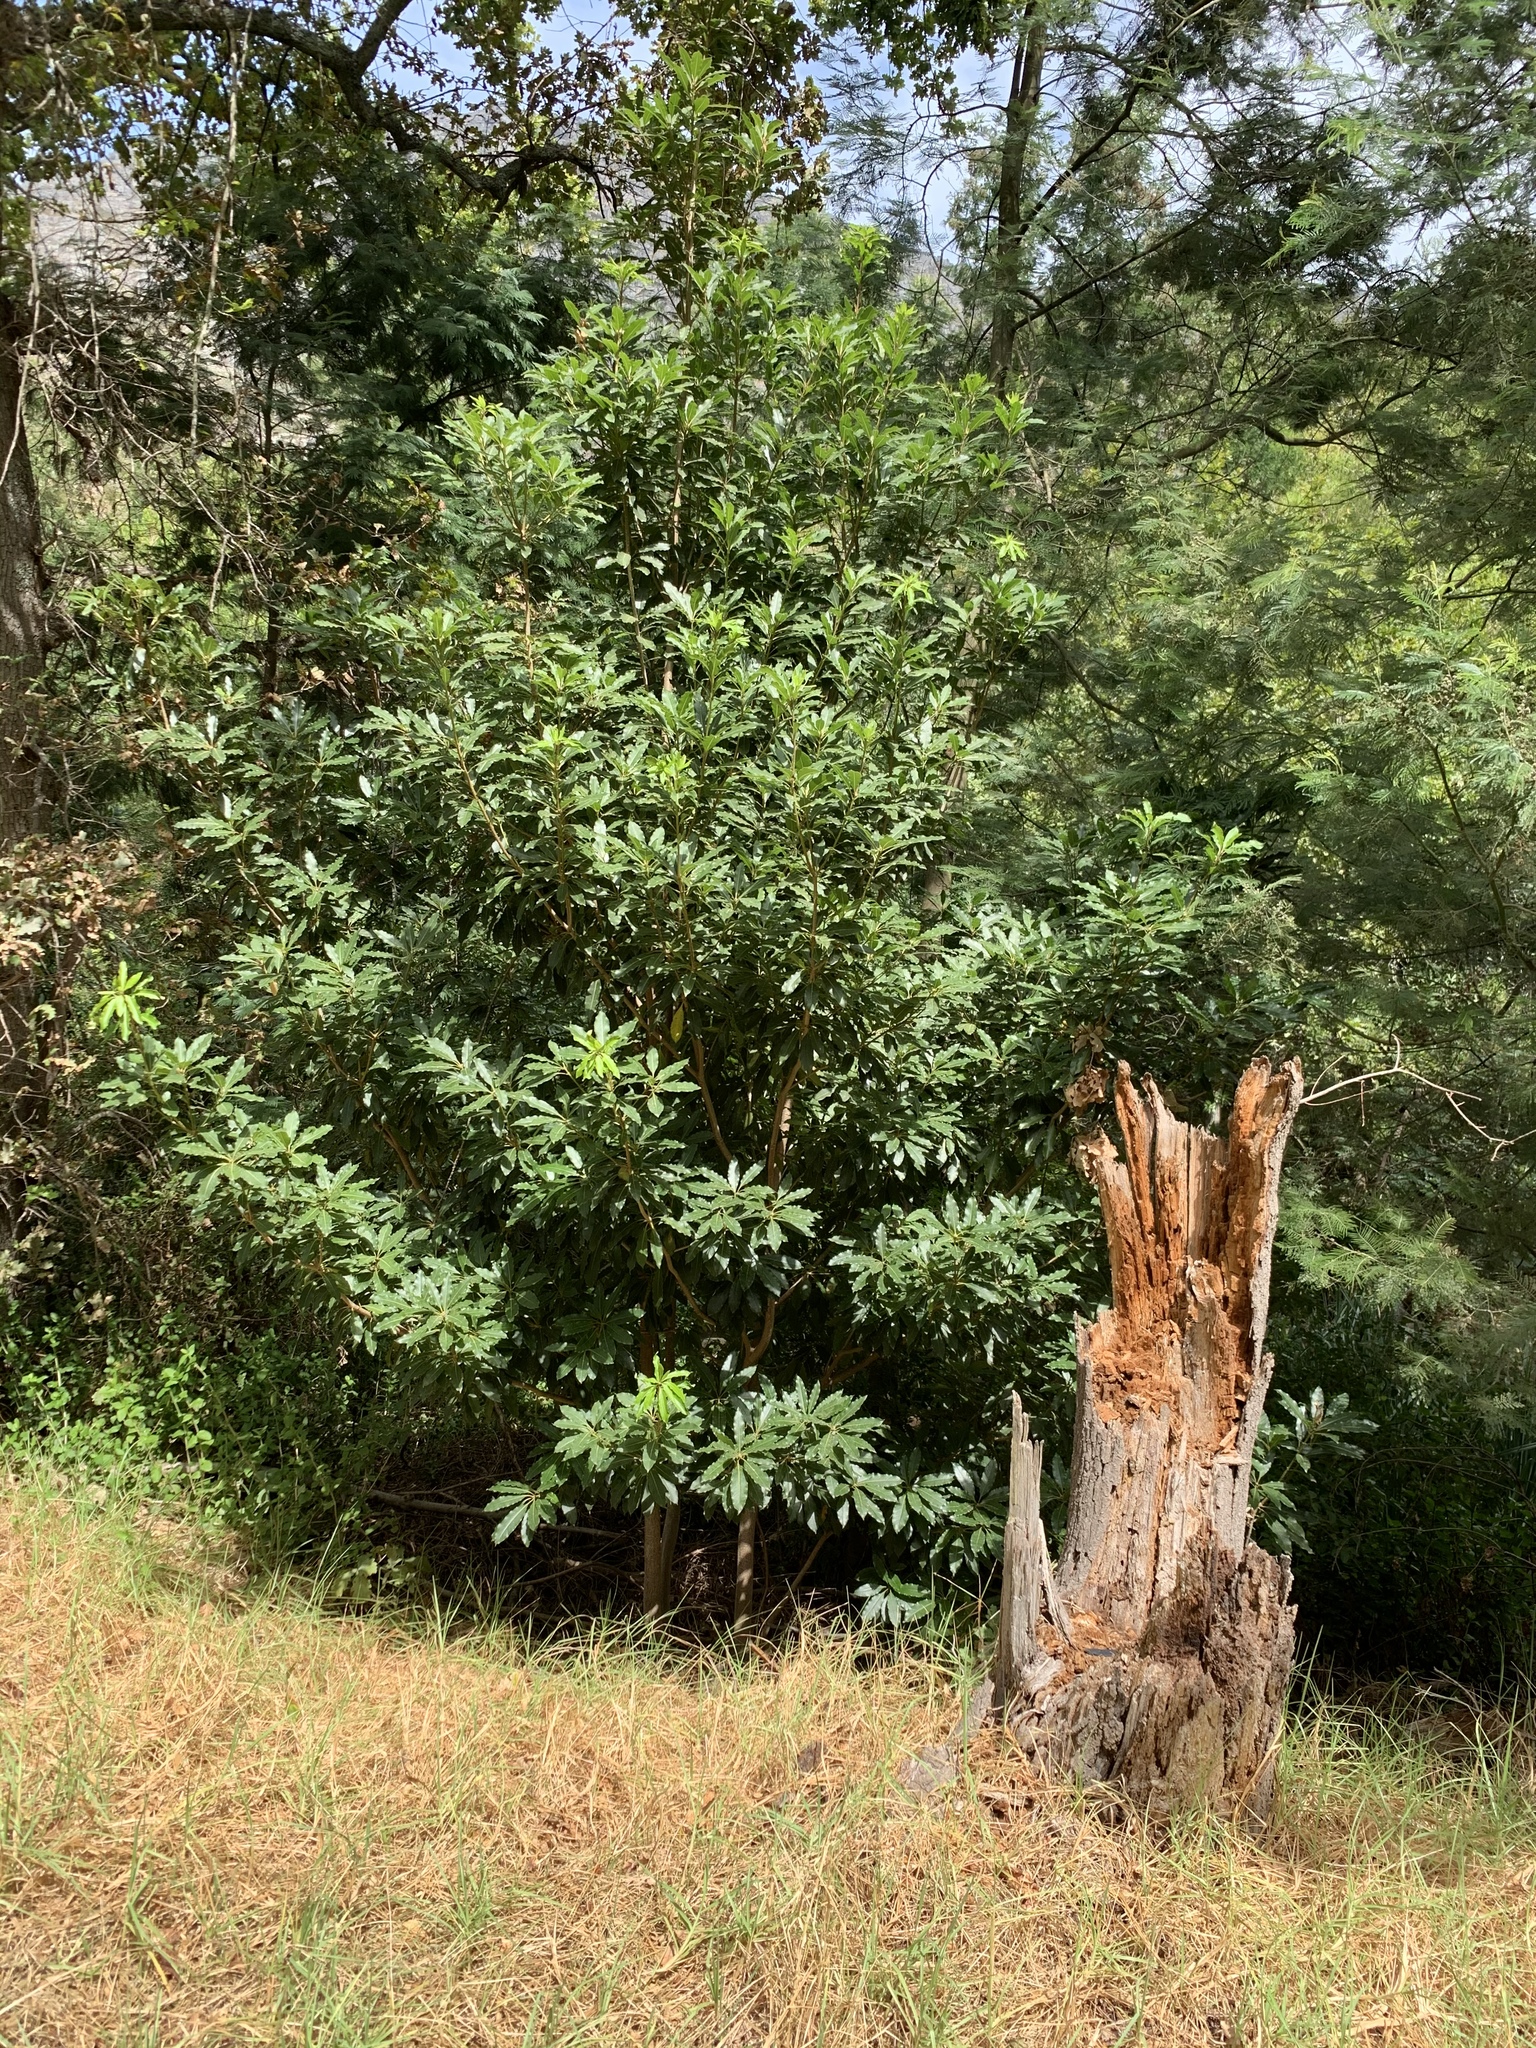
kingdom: Plantae
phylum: Tracheophyta
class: Magnoliopsida
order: Apiales
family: Pittosporaceae
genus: Pittosporum
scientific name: Pittosporum undulatum
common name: Australian cheesewood
